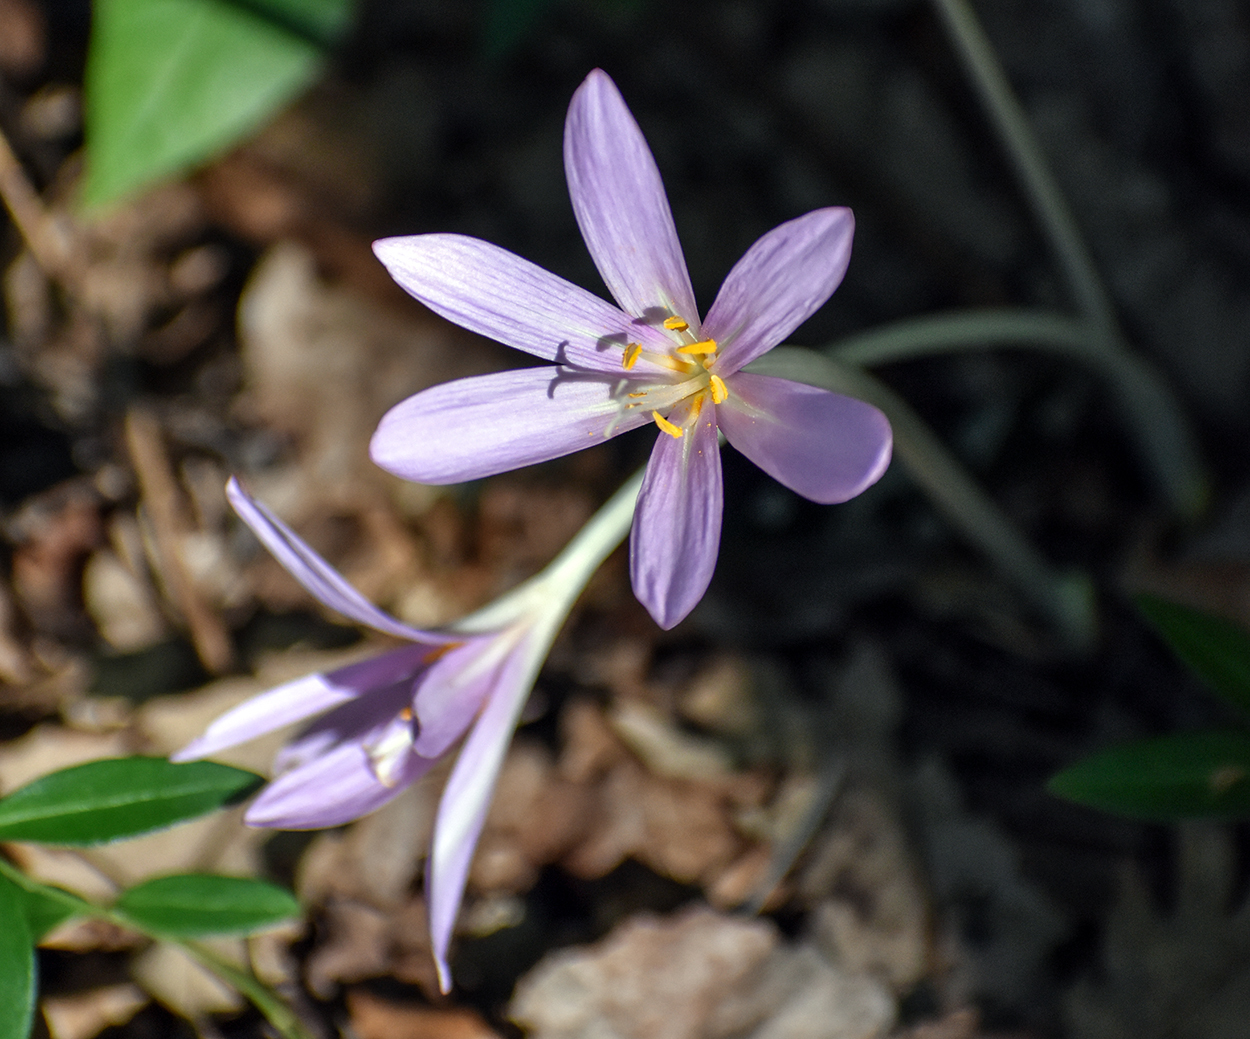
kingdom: Plantae
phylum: Tracheophyta
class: Liliopsida
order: Liliales
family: Colchicaceae
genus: Colchicum
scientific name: Colchicum autumnale
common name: Autumn crocus
